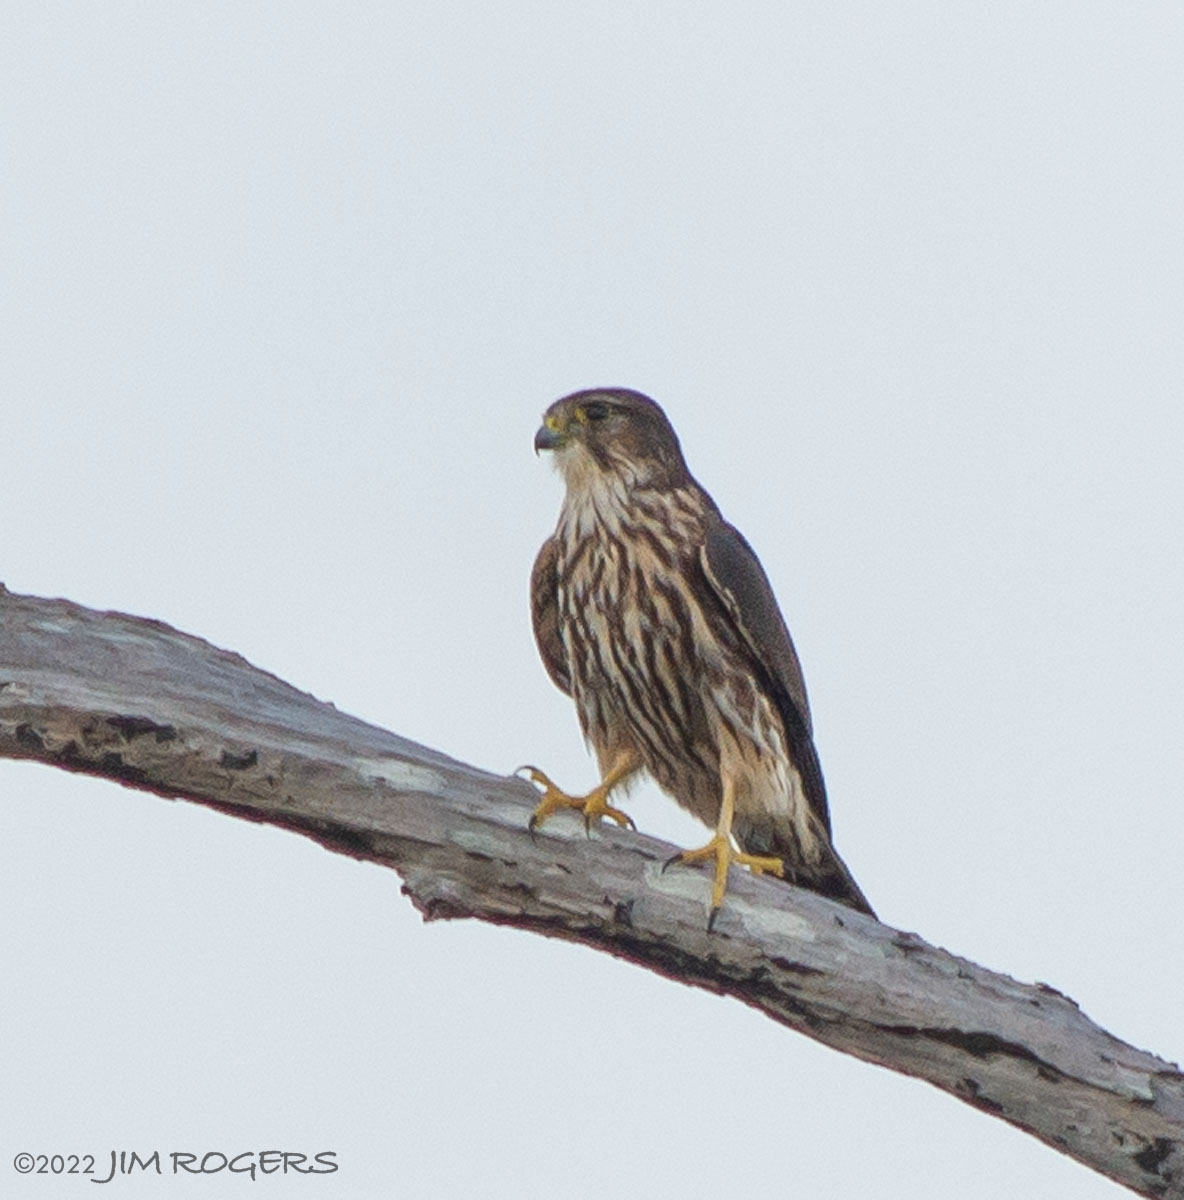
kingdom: Animalia
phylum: Chordata
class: Aves
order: Falconiformes
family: Falconidae
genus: Falco
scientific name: Falco columbarius
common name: Merlin
